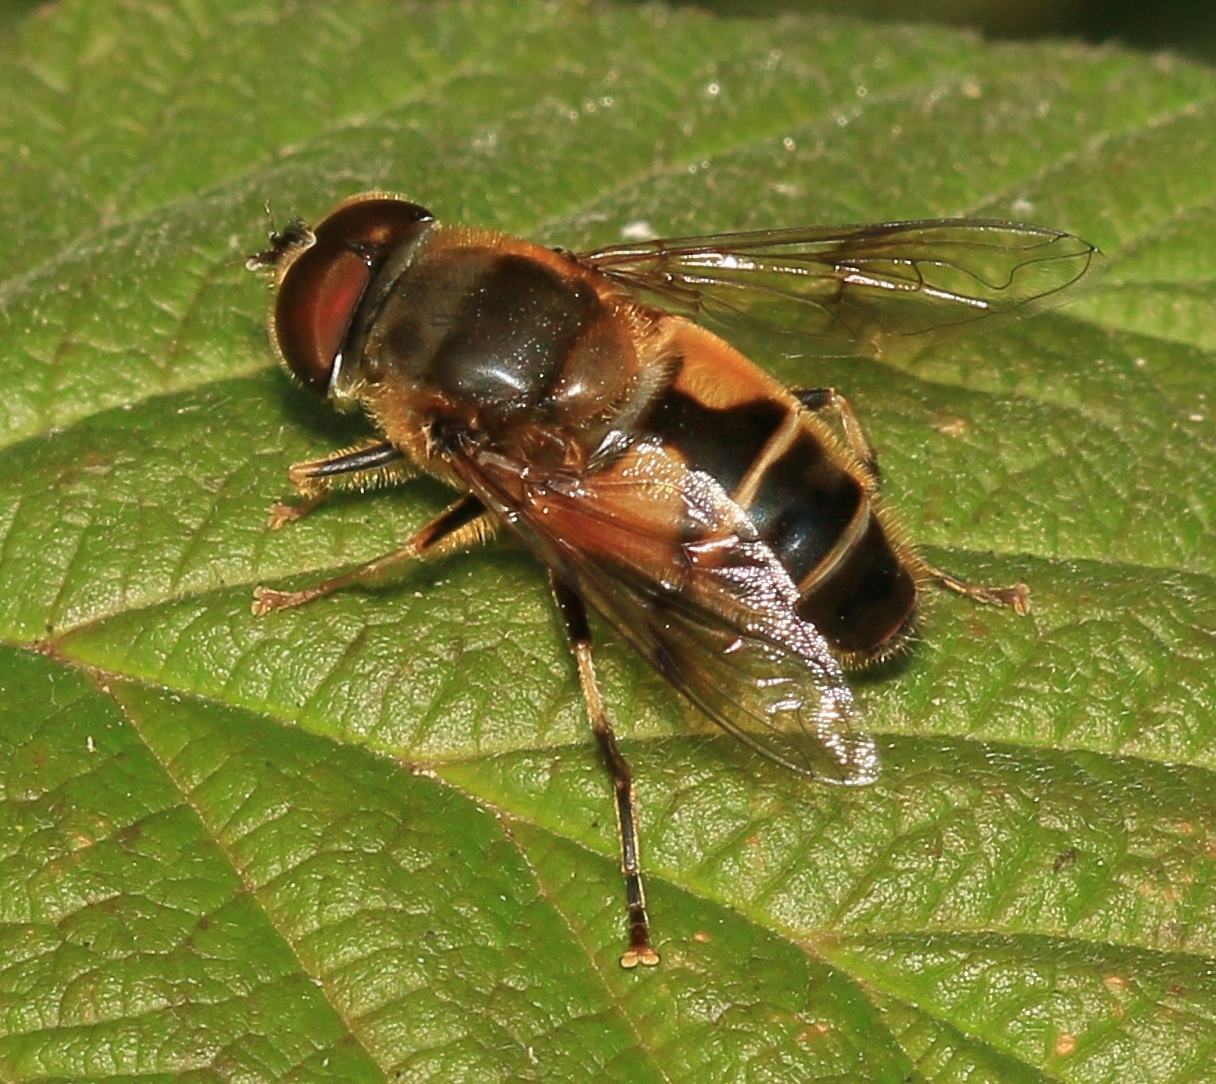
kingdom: Animalia
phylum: Arthropoda
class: Insecta
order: Diptera
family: Syrphidae
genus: Eristalis
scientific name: Eristalis pertinax
